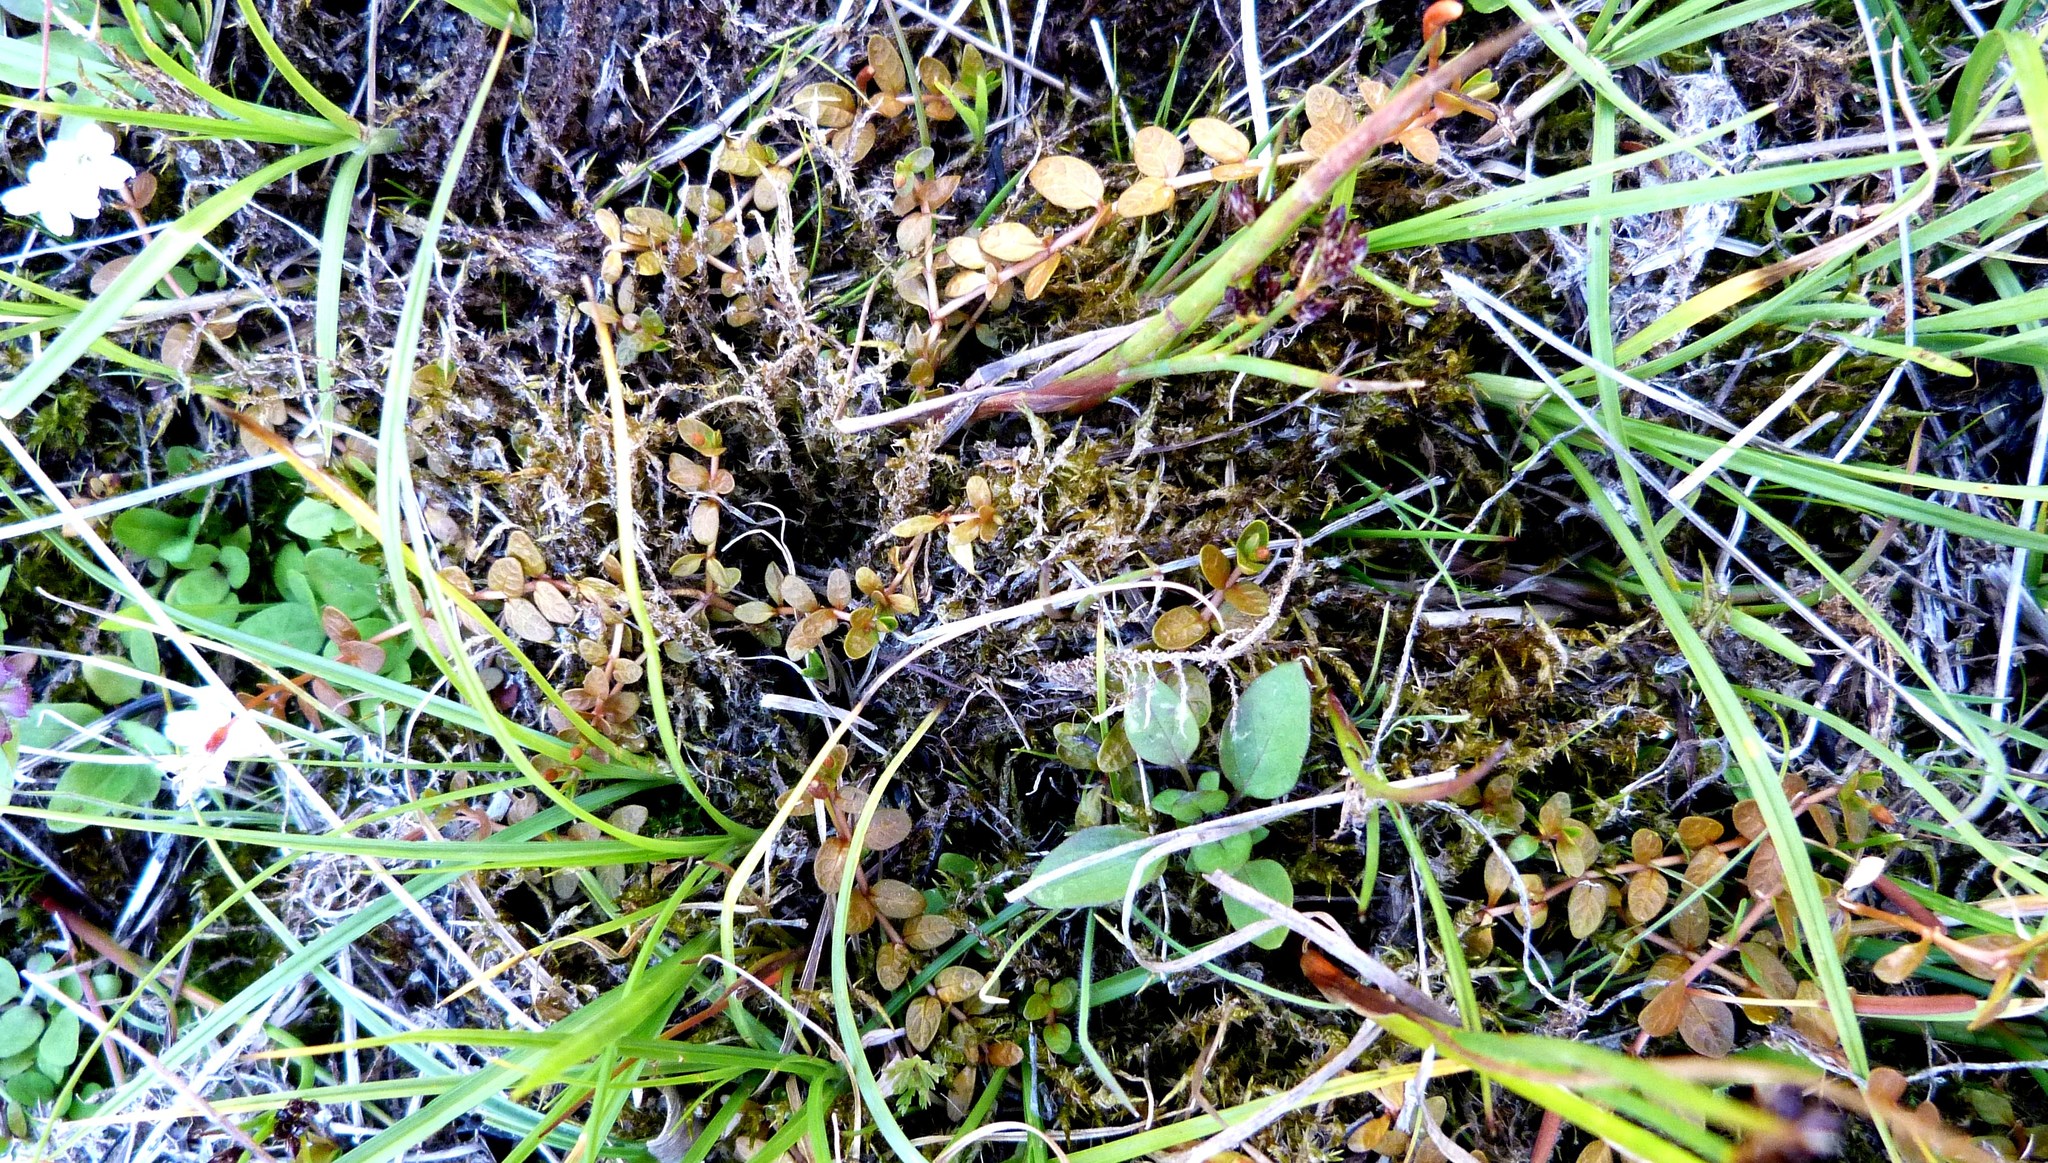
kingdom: Plantae
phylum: Tracheophyta
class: Magnoliopsida
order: Myrtales
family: Onagraceae
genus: Epilobium
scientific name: Epilobium angustum
